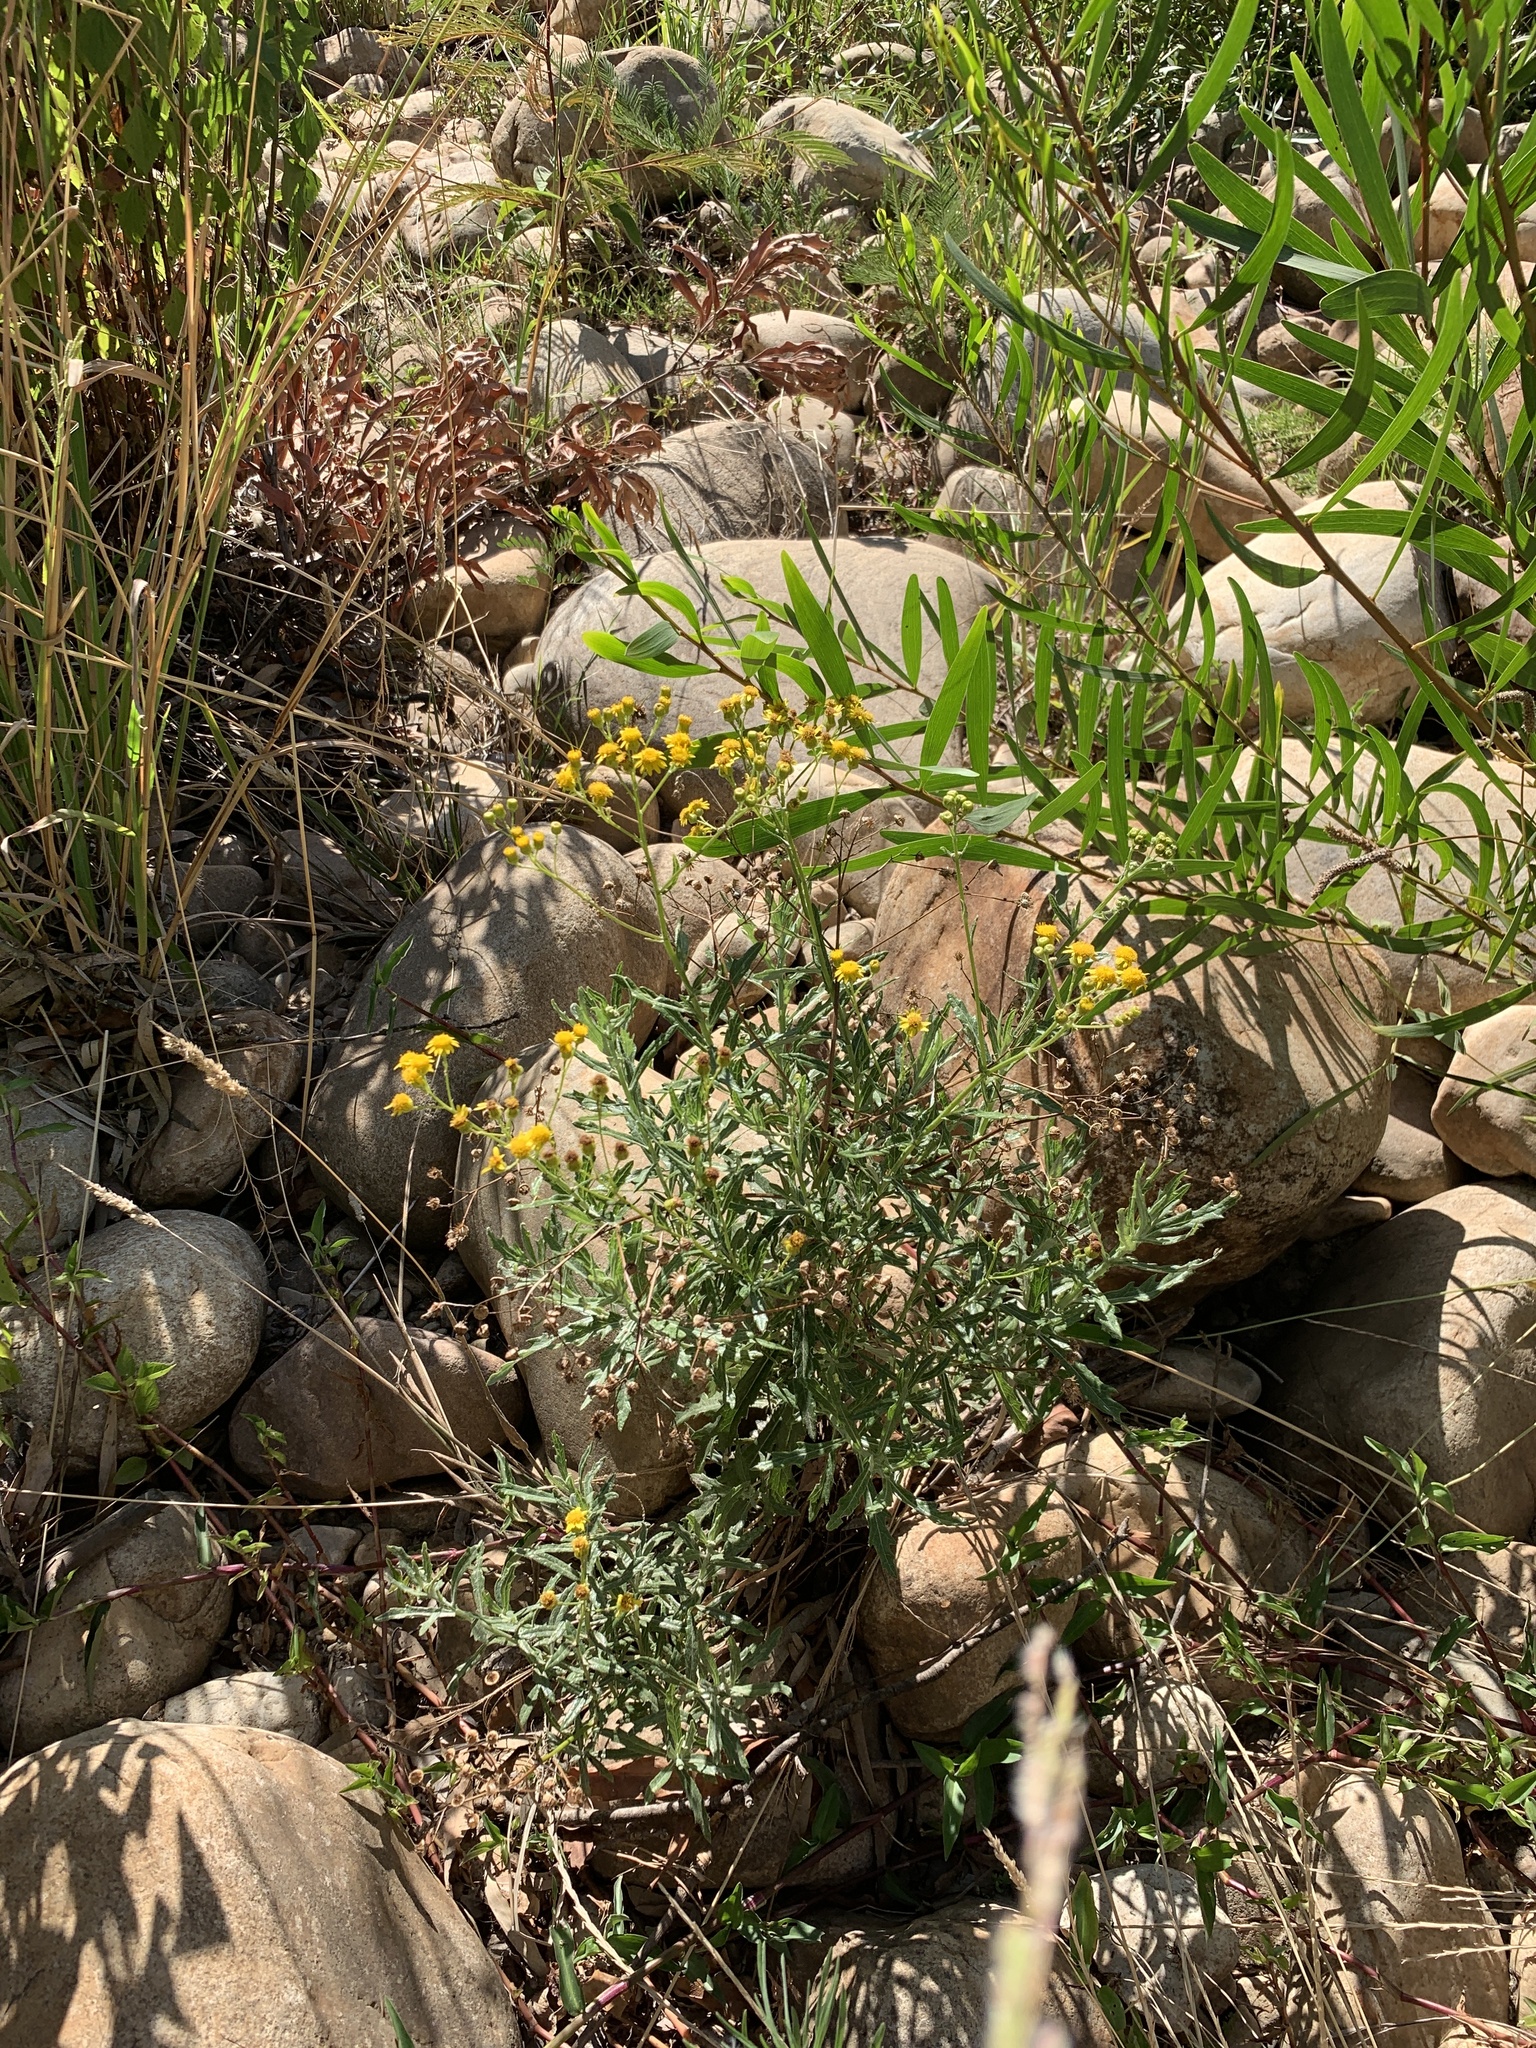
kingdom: Plantae
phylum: Tracheophyta
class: Magnoliopsida
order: Asterales
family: Asteraceae
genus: Senecio
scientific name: Senecio pterophorus
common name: Shoddy ragwort
